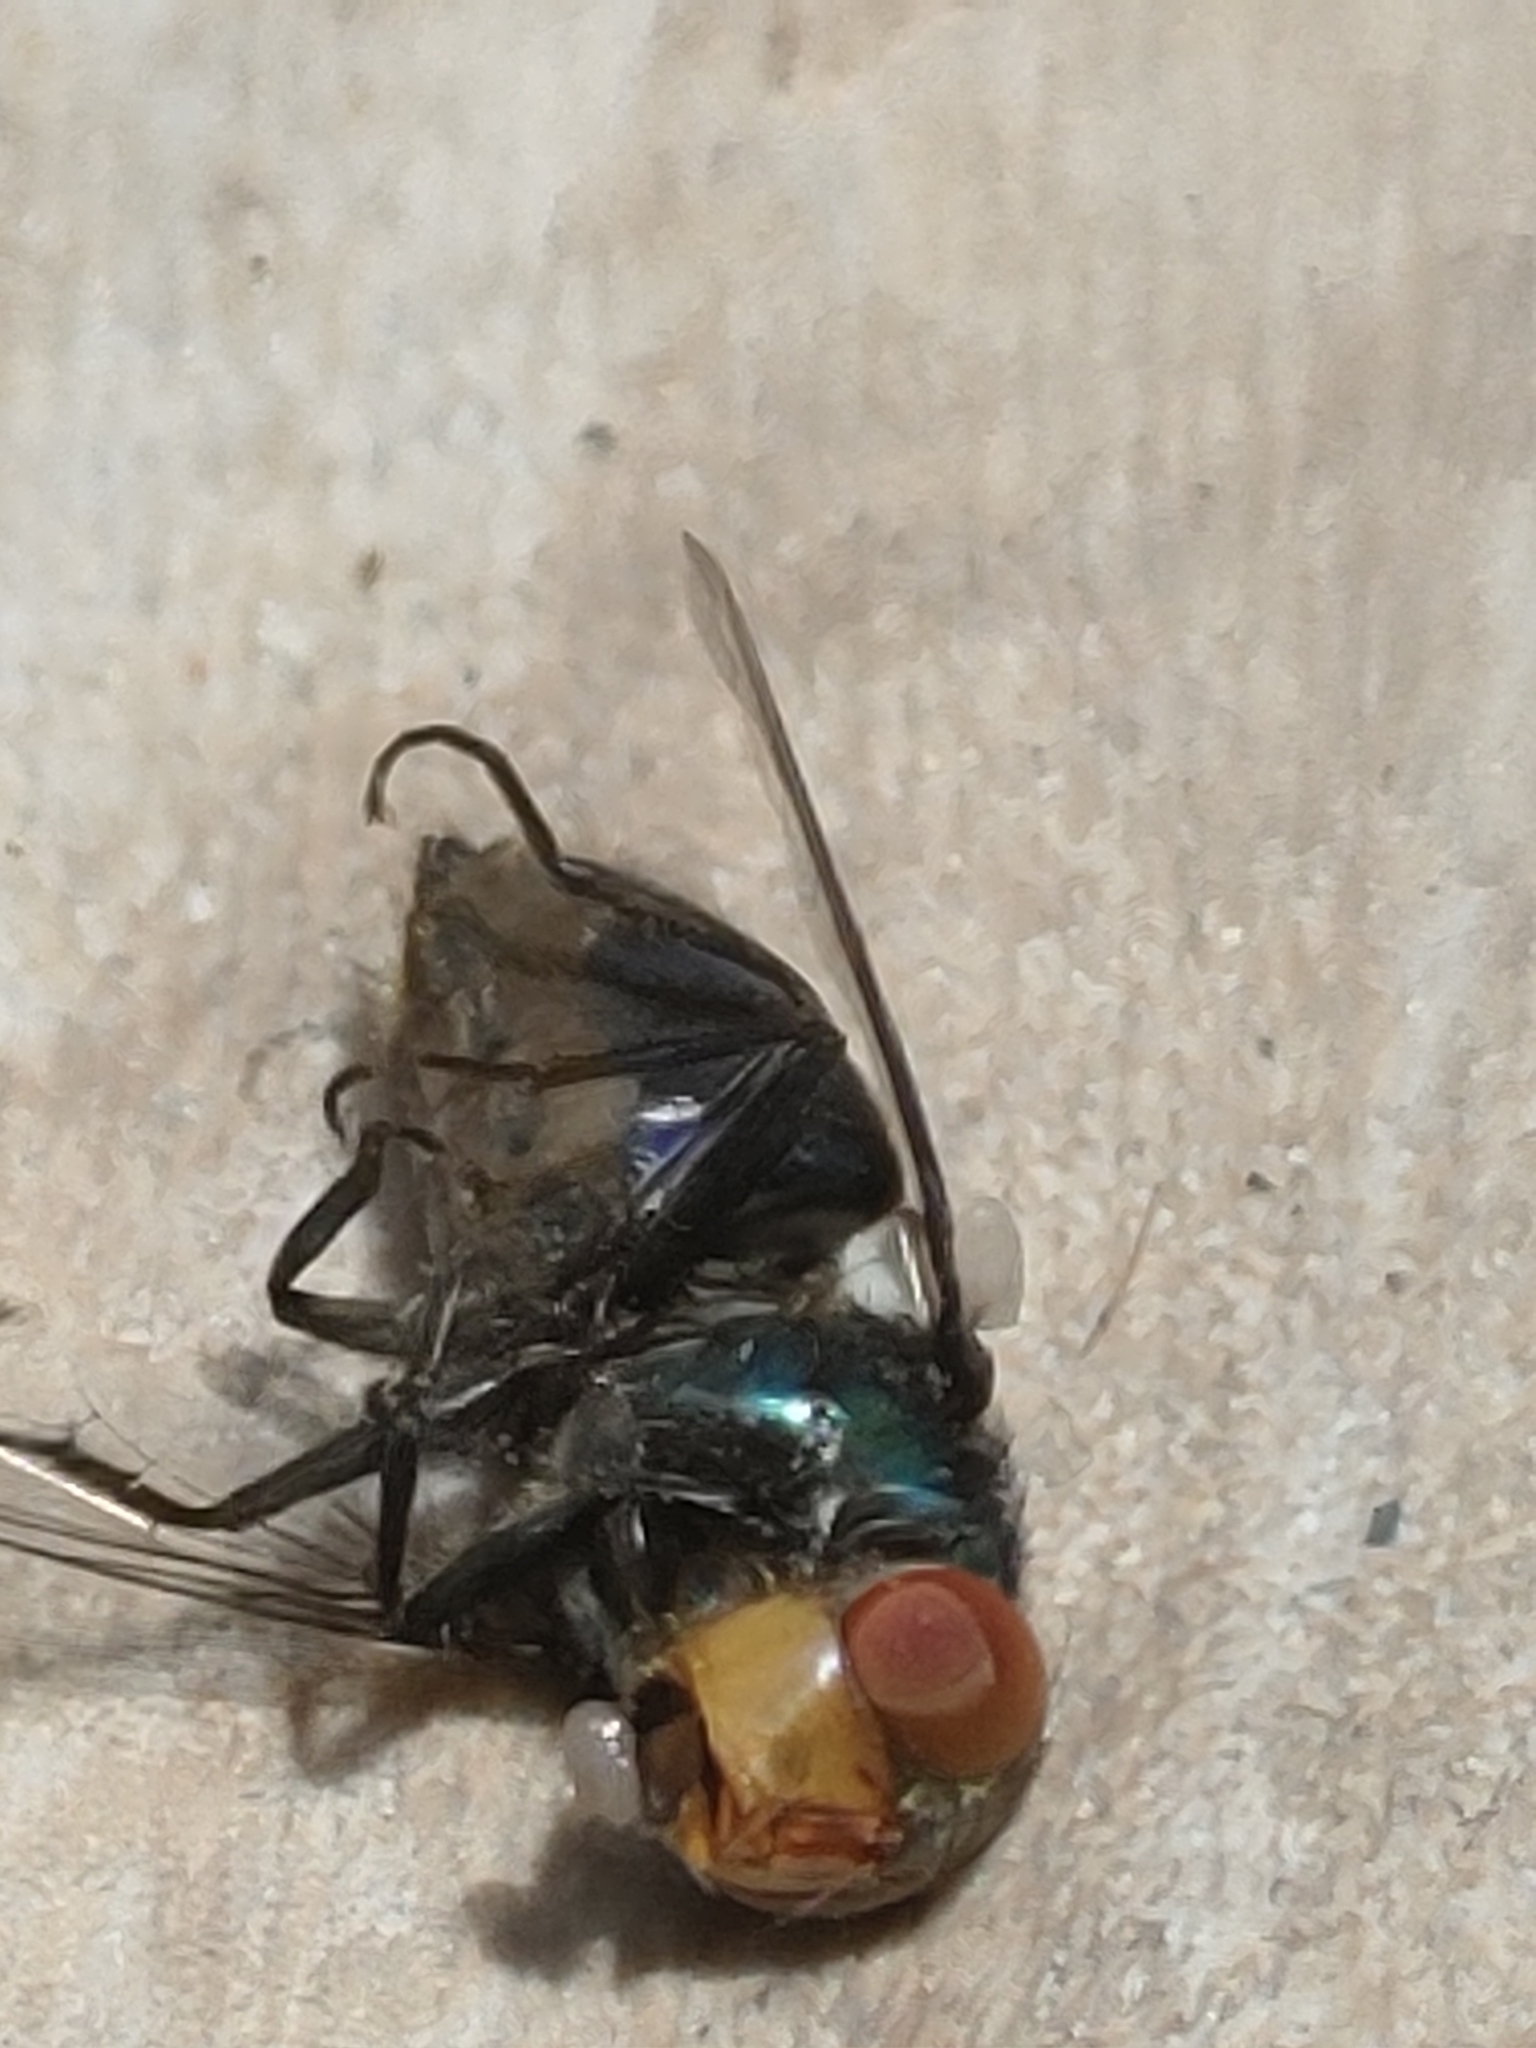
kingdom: Animalia
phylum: Arthropoda
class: Insecta
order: Diptera
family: Calliphoridae
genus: Chrysomya
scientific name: Chrysomya megacephala
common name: Blow fly
